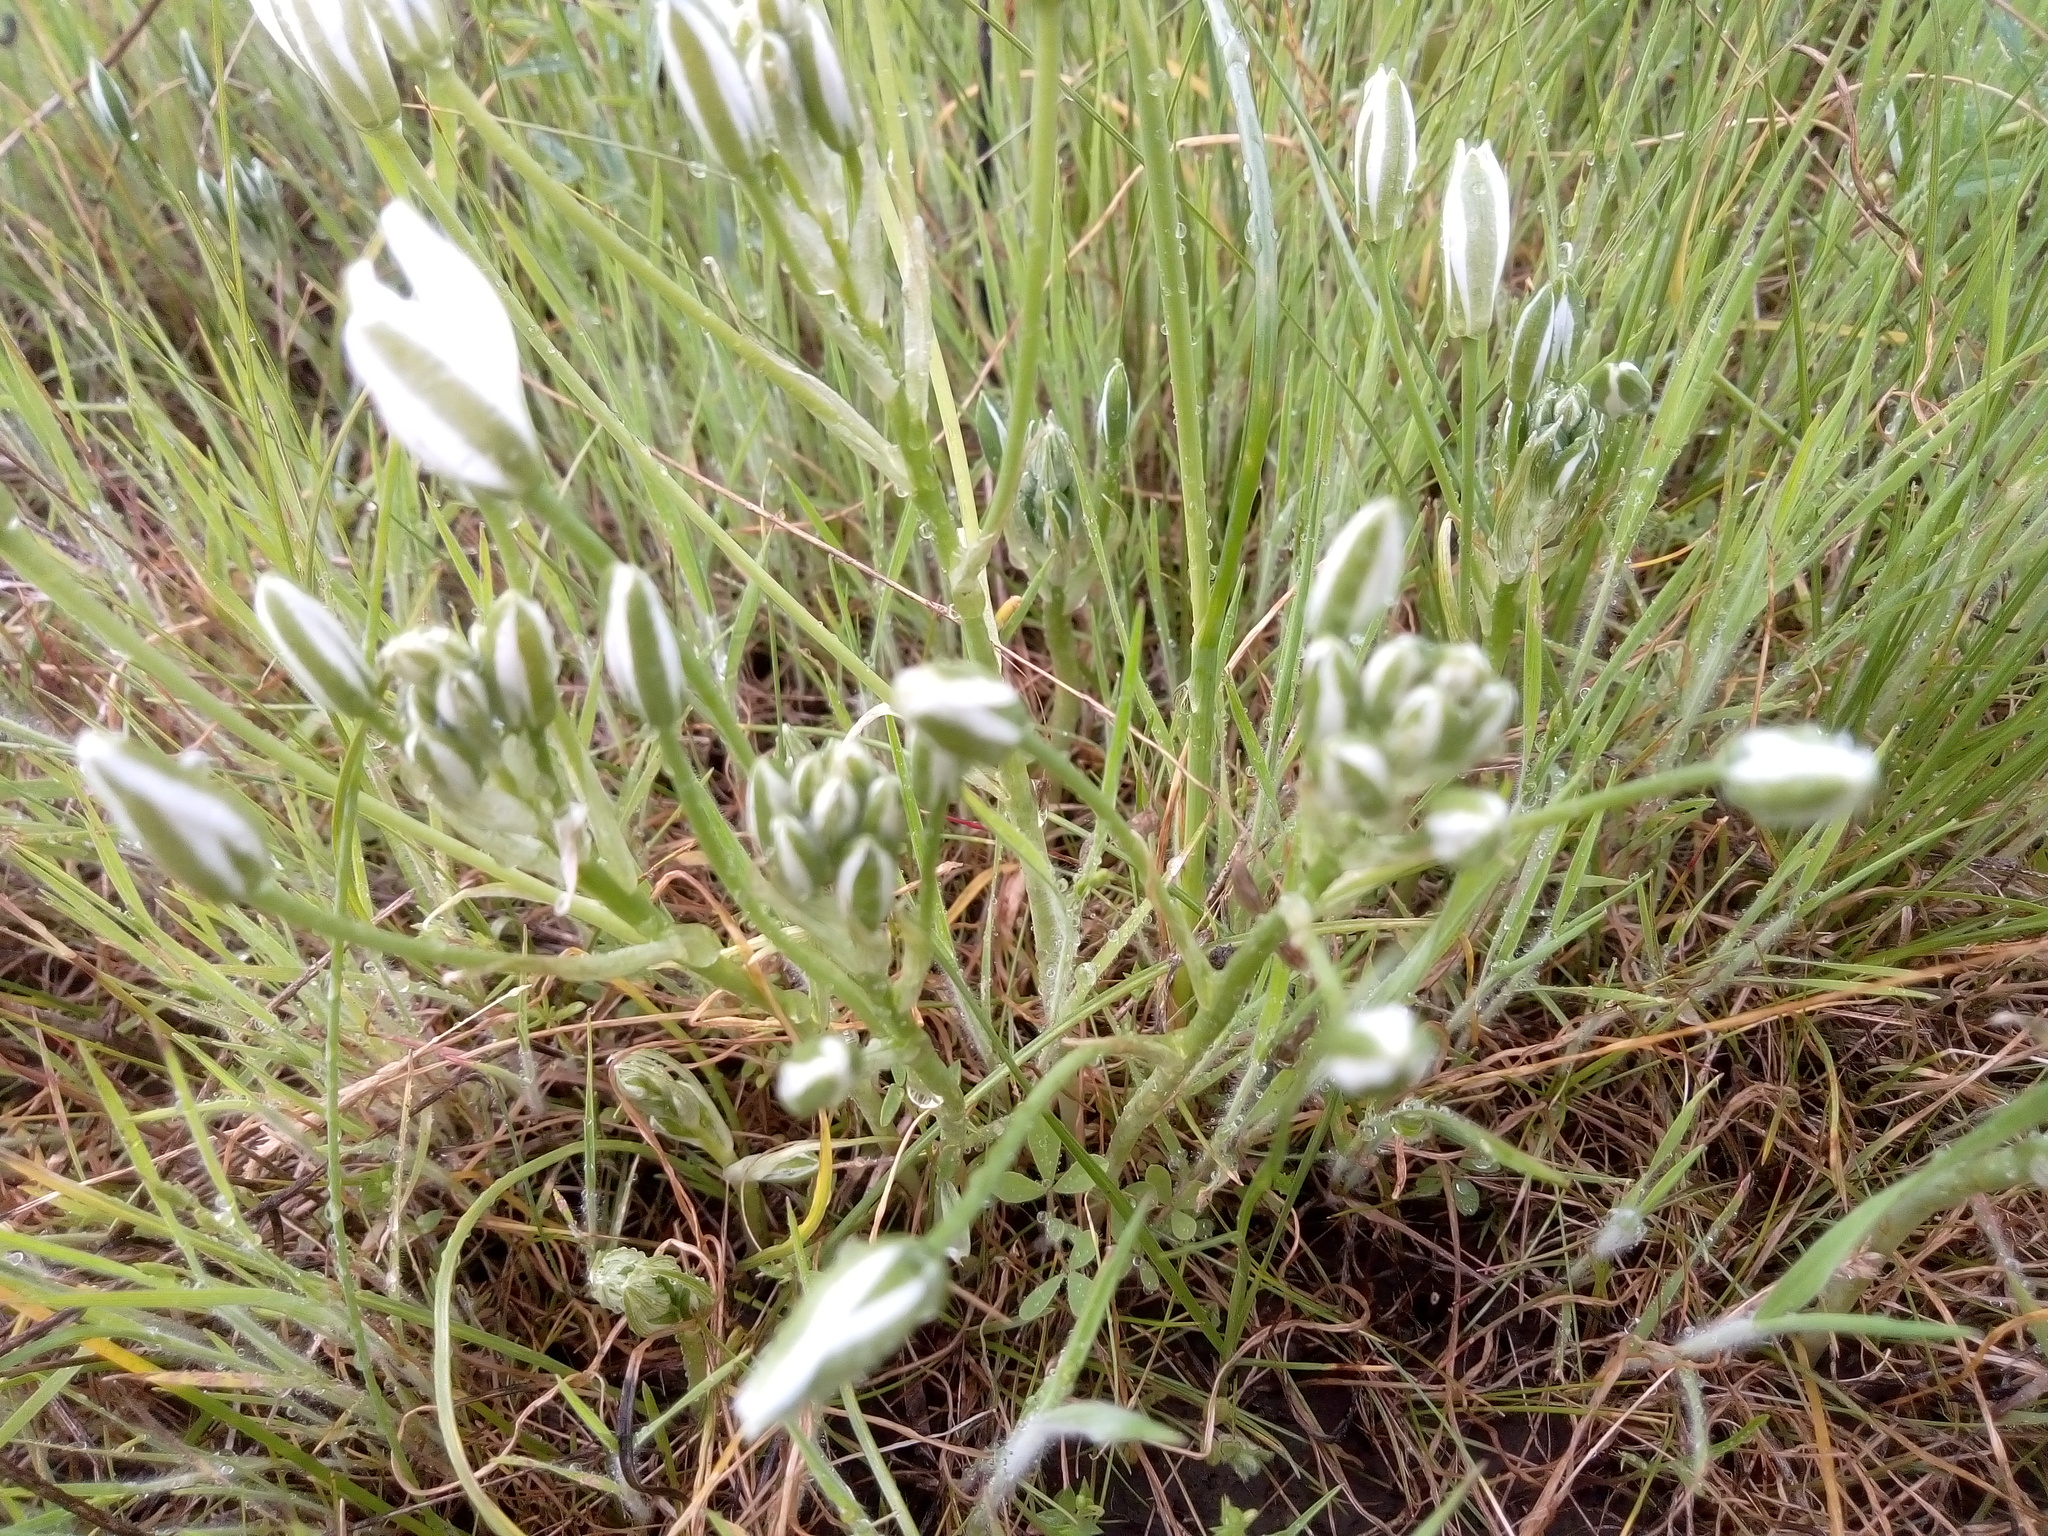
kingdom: Plantae
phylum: Tracheophyta
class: Liliopsida
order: Asparagales
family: Asparagaceae
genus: Ornithogalum
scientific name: Ornithogalum orthophyllum
